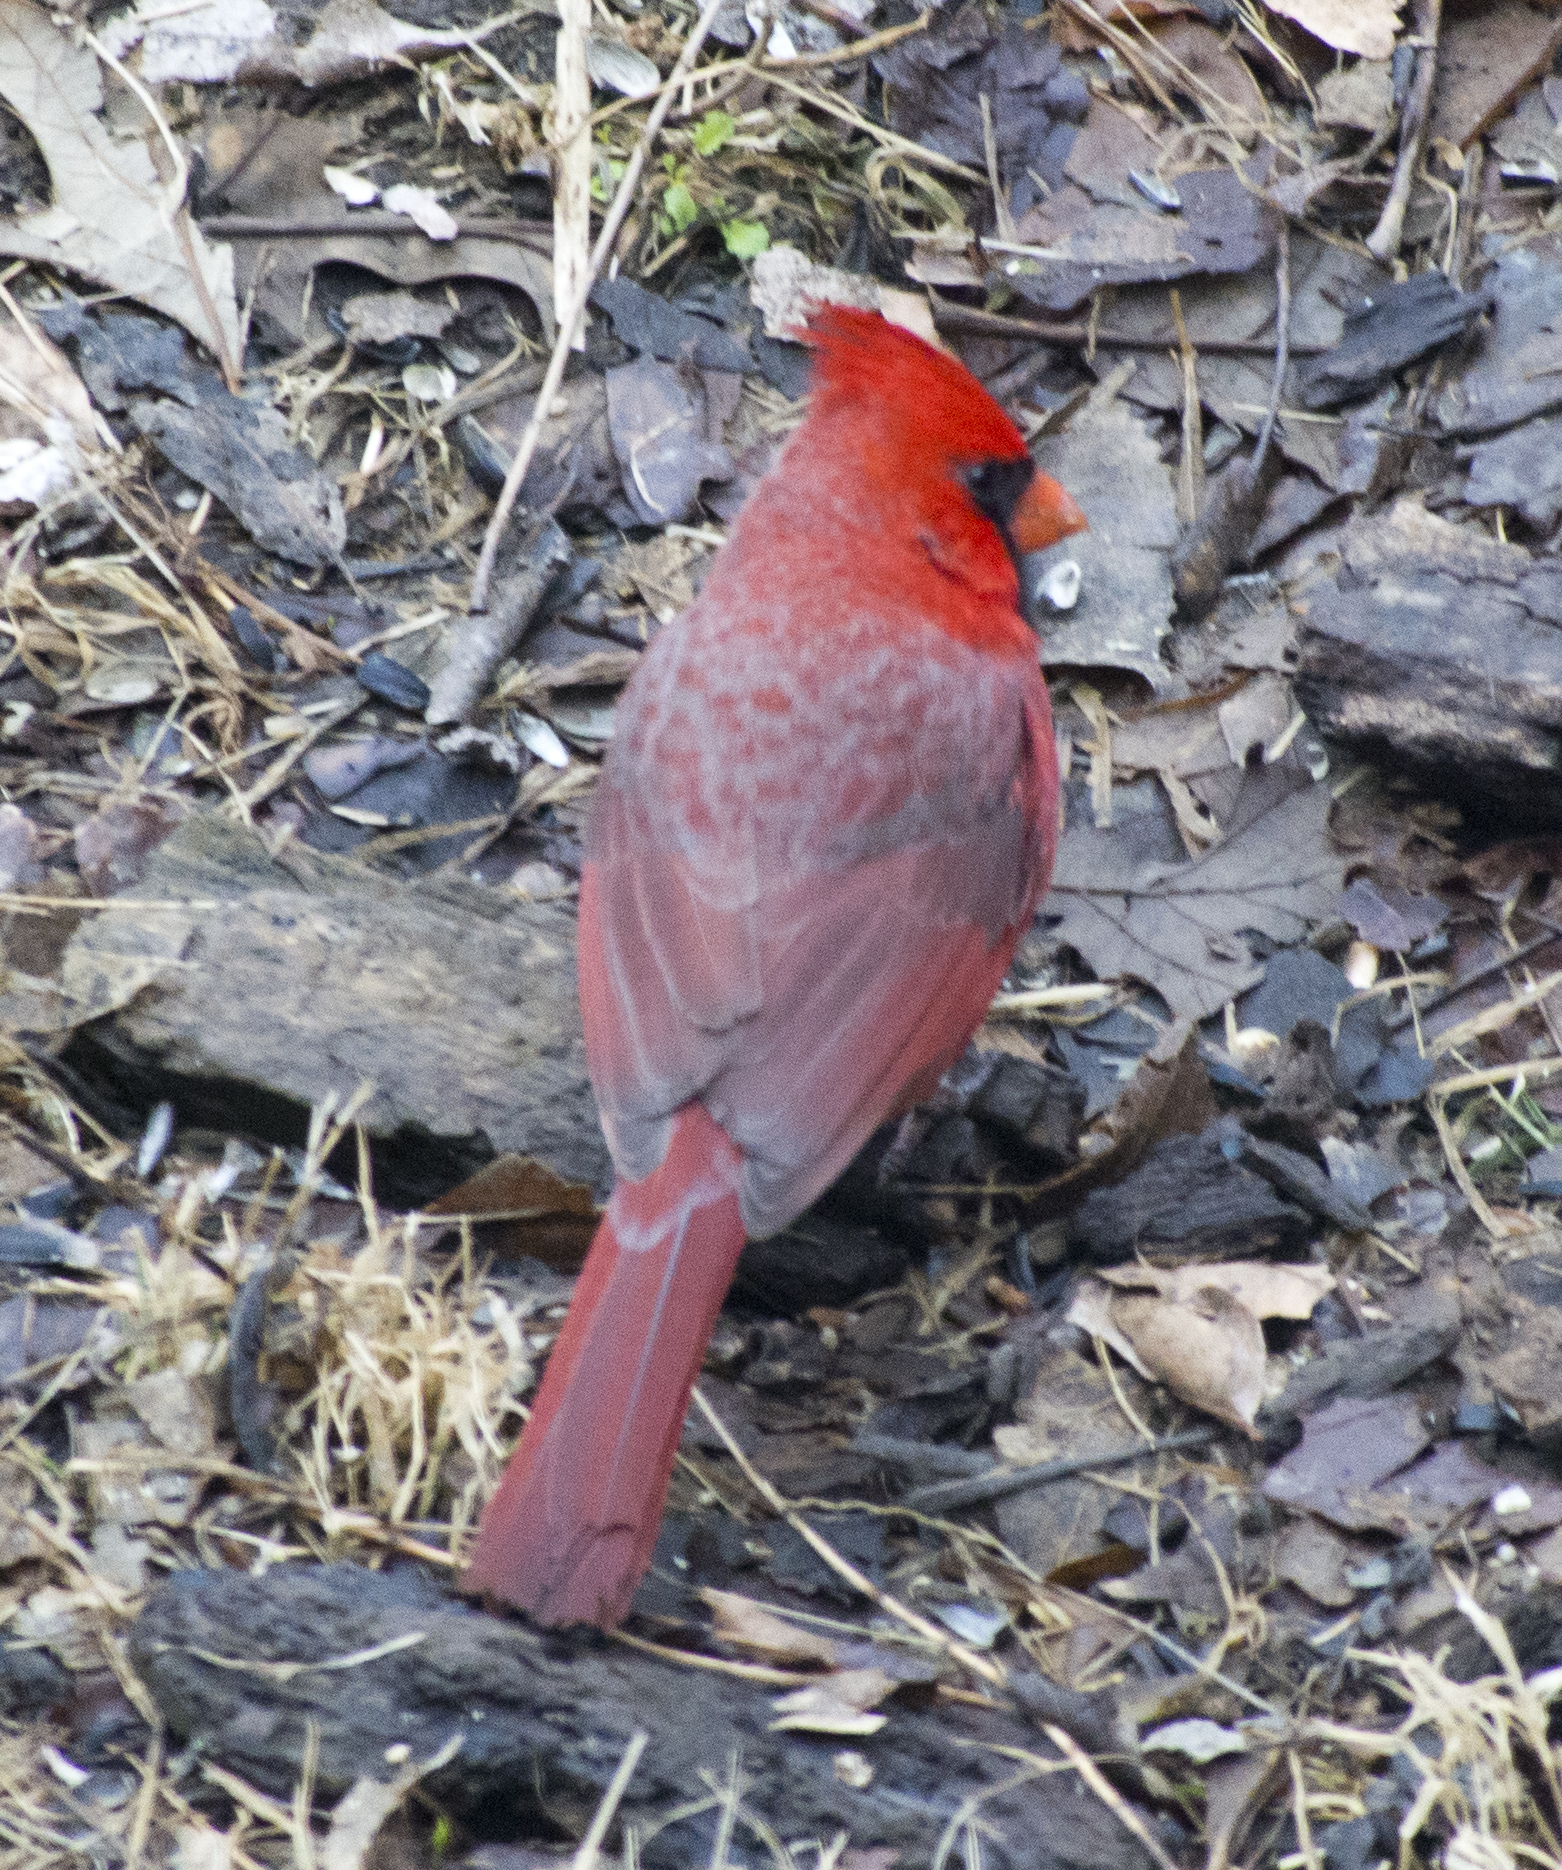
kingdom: Animalia
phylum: Chordata
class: Aves
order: Passeriformes
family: Cardinalidae
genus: Cardinalis
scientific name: Cardinalis cardinalis
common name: Northern cardinal
